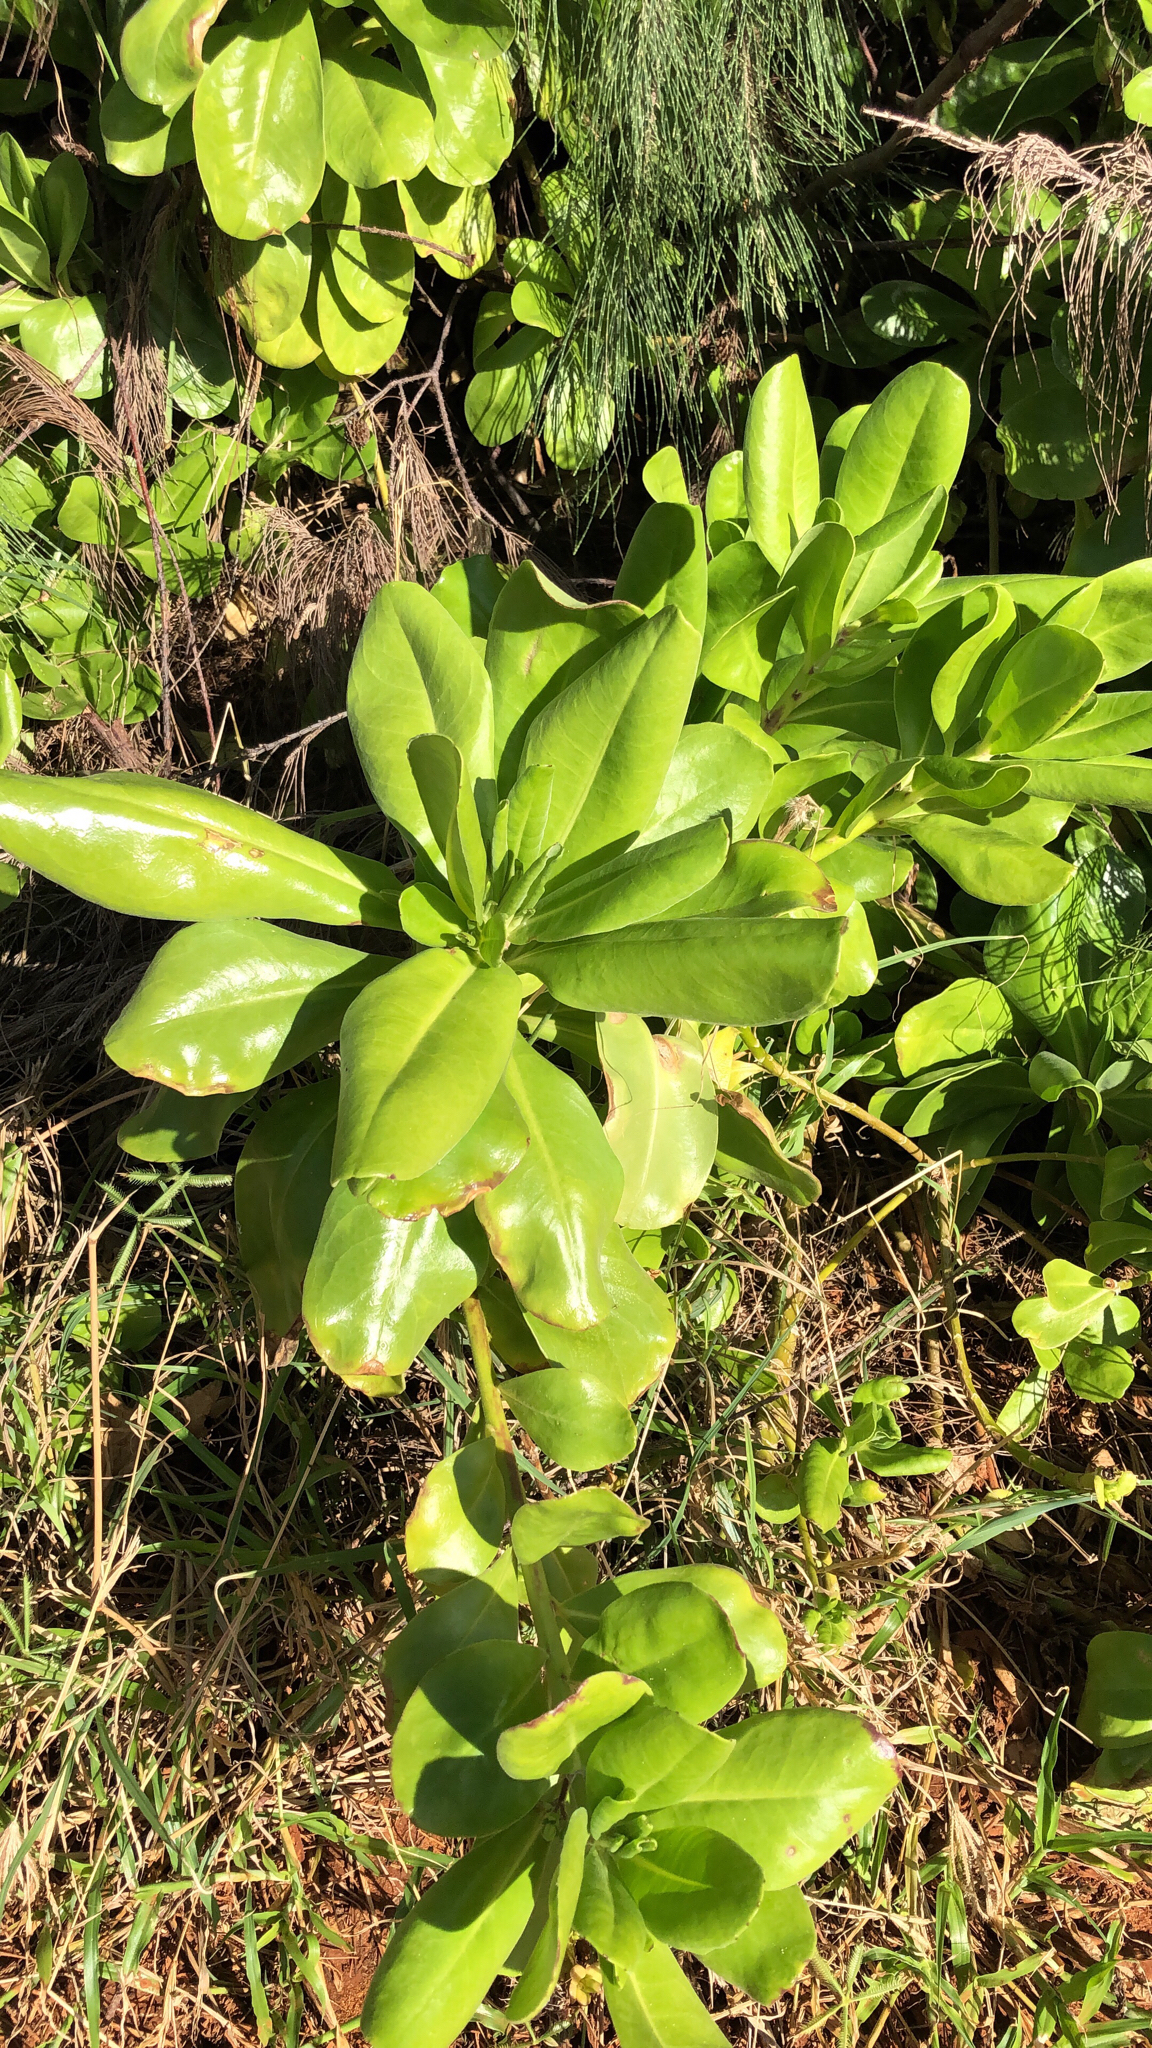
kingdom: Plantae
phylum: Tracheophyta
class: Magnoliopsida
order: Asterales
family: Goodeniaceae
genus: Scaevola
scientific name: Scaevola taccada
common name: Sea lettucetree
